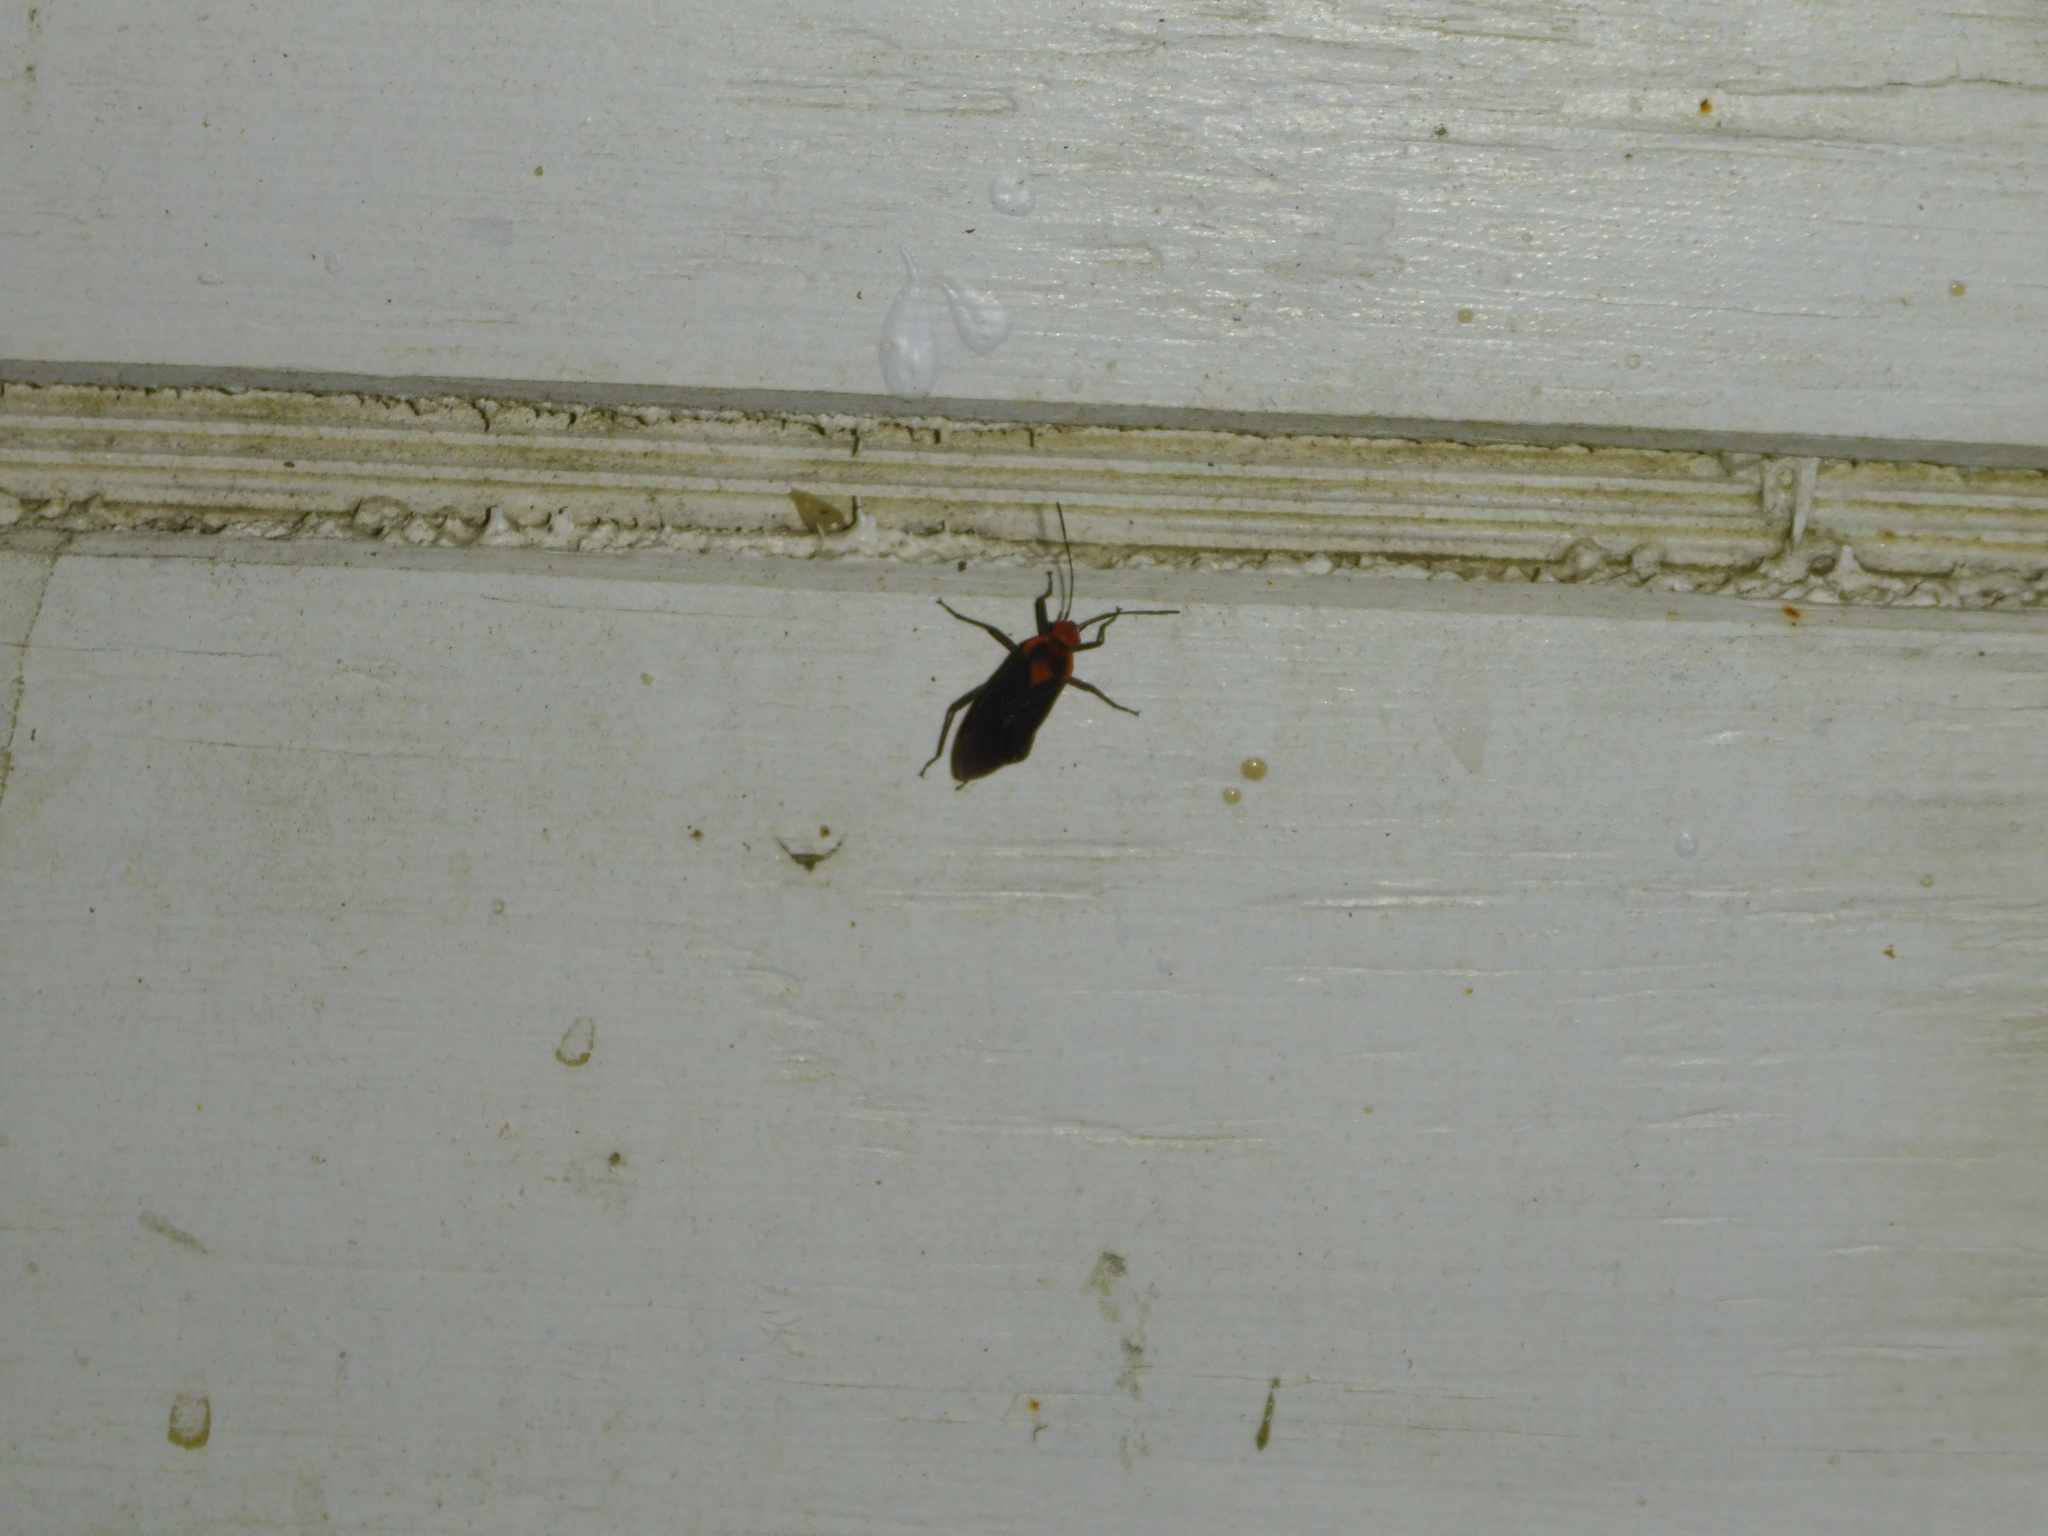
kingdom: Animalia
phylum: Arthropoda
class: Insecta
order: Hemiptera
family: Rhopalidae
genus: Jadera
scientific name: Jadera sanguinolenta
